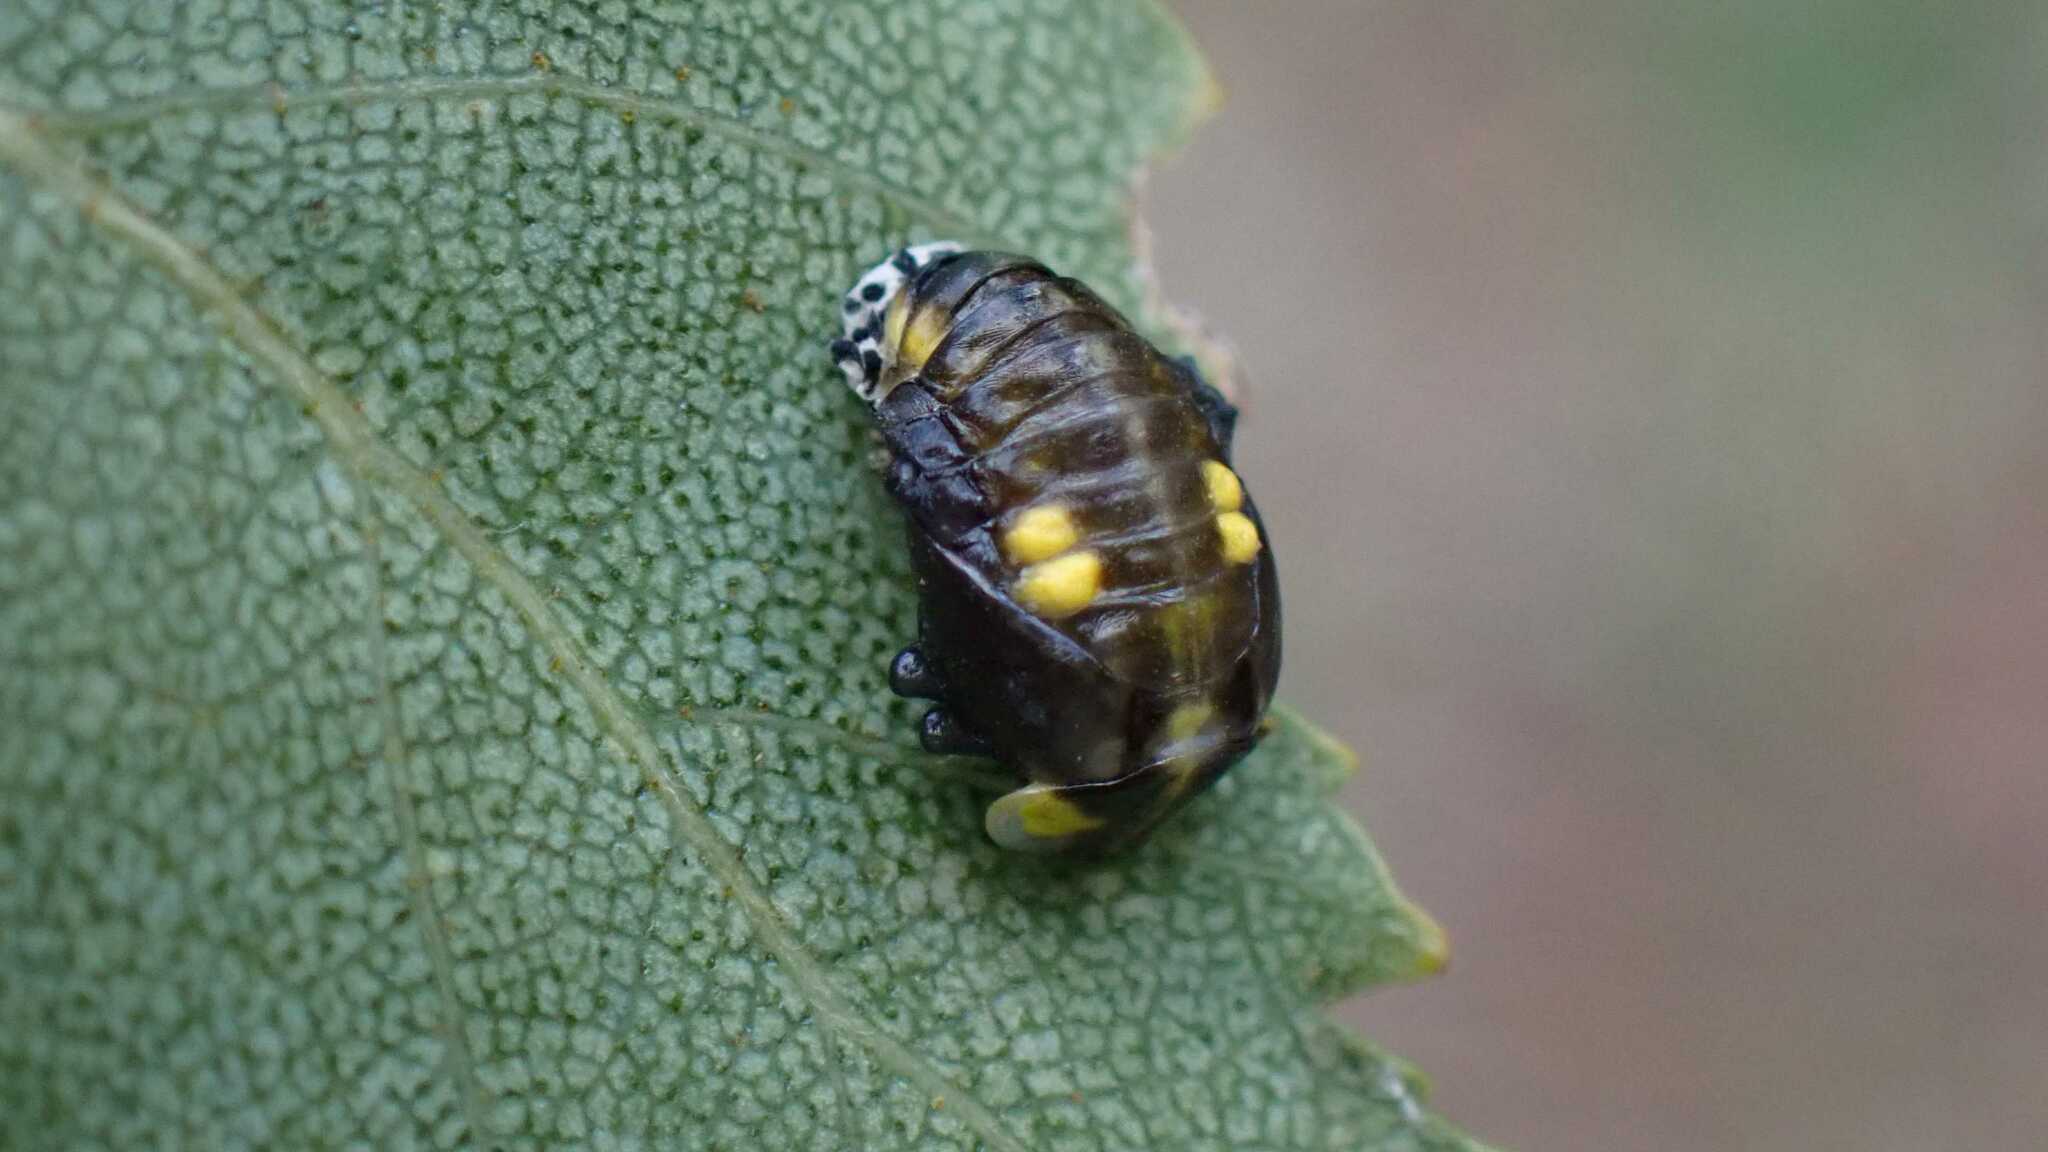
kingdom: Animalia
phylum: Arthropoda
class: Insecta
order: Coleoptera
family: Coccinellidae
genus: Halyzia
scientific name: Halyzia sedecimguttata
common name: Orange ladybird
